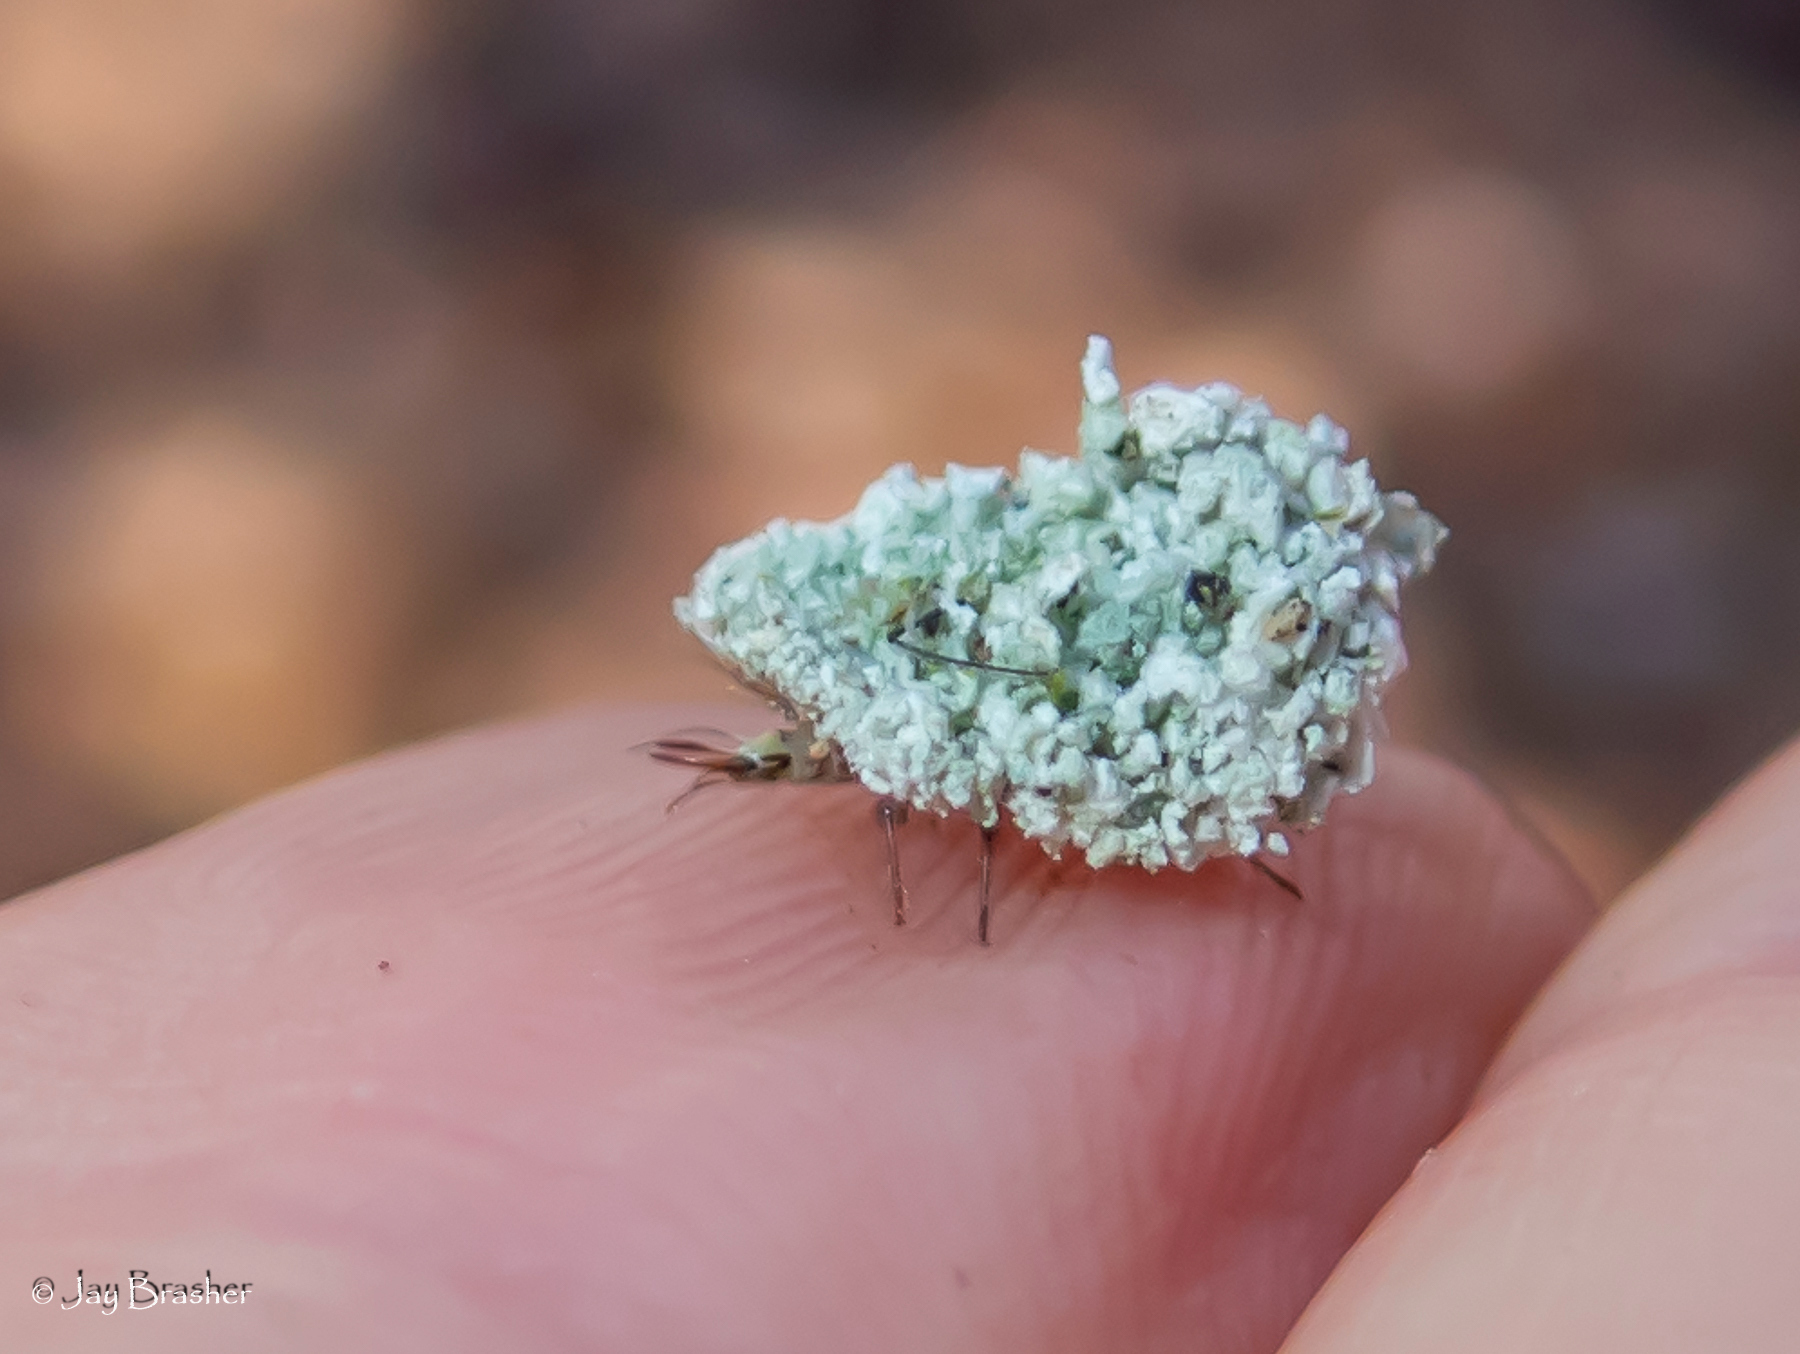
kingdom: Animalia
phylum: Arthropoda
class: Insecta
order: Neuroptera
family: Chrysopidae
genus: Leucochrysa
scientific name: Leucochrysa pavida
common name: Lichen-carrying green lacewing
